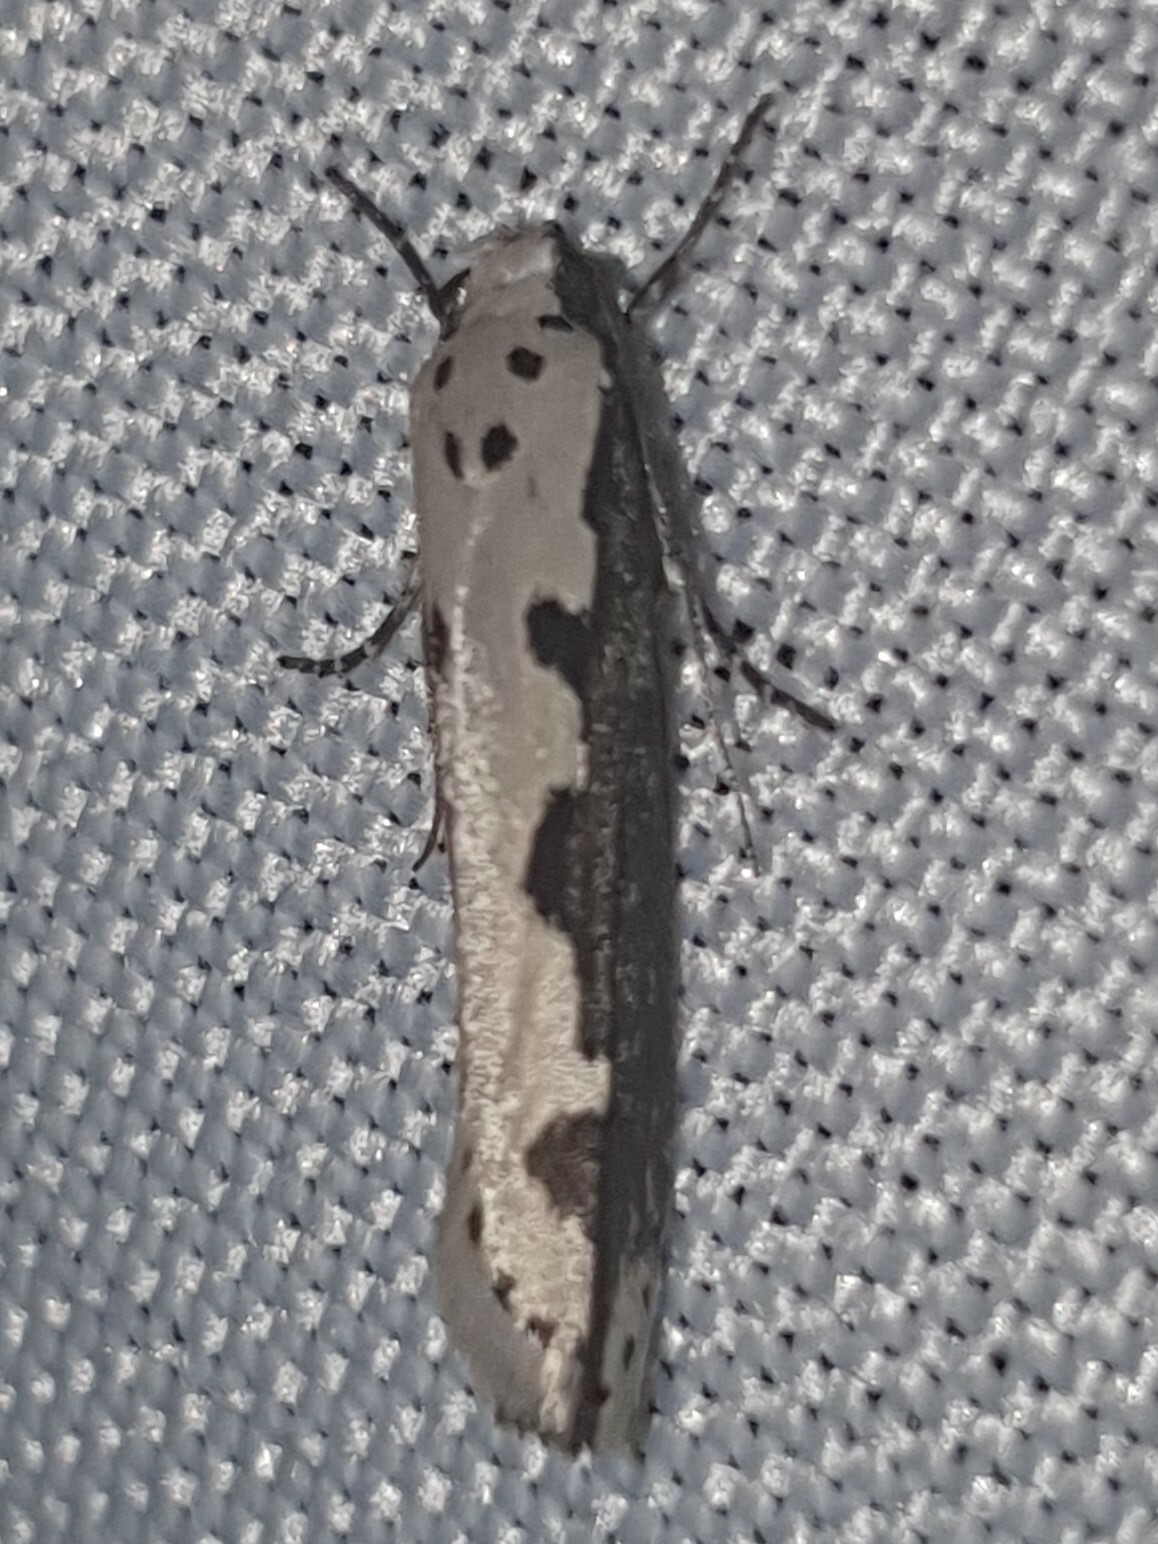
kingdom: Animalia
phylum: Arthropoda
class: Insecta
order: Lepidoptera
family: Ethmiidae
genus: Ethmia
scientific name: Ethmia bipunctella
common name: Bordered ermel
